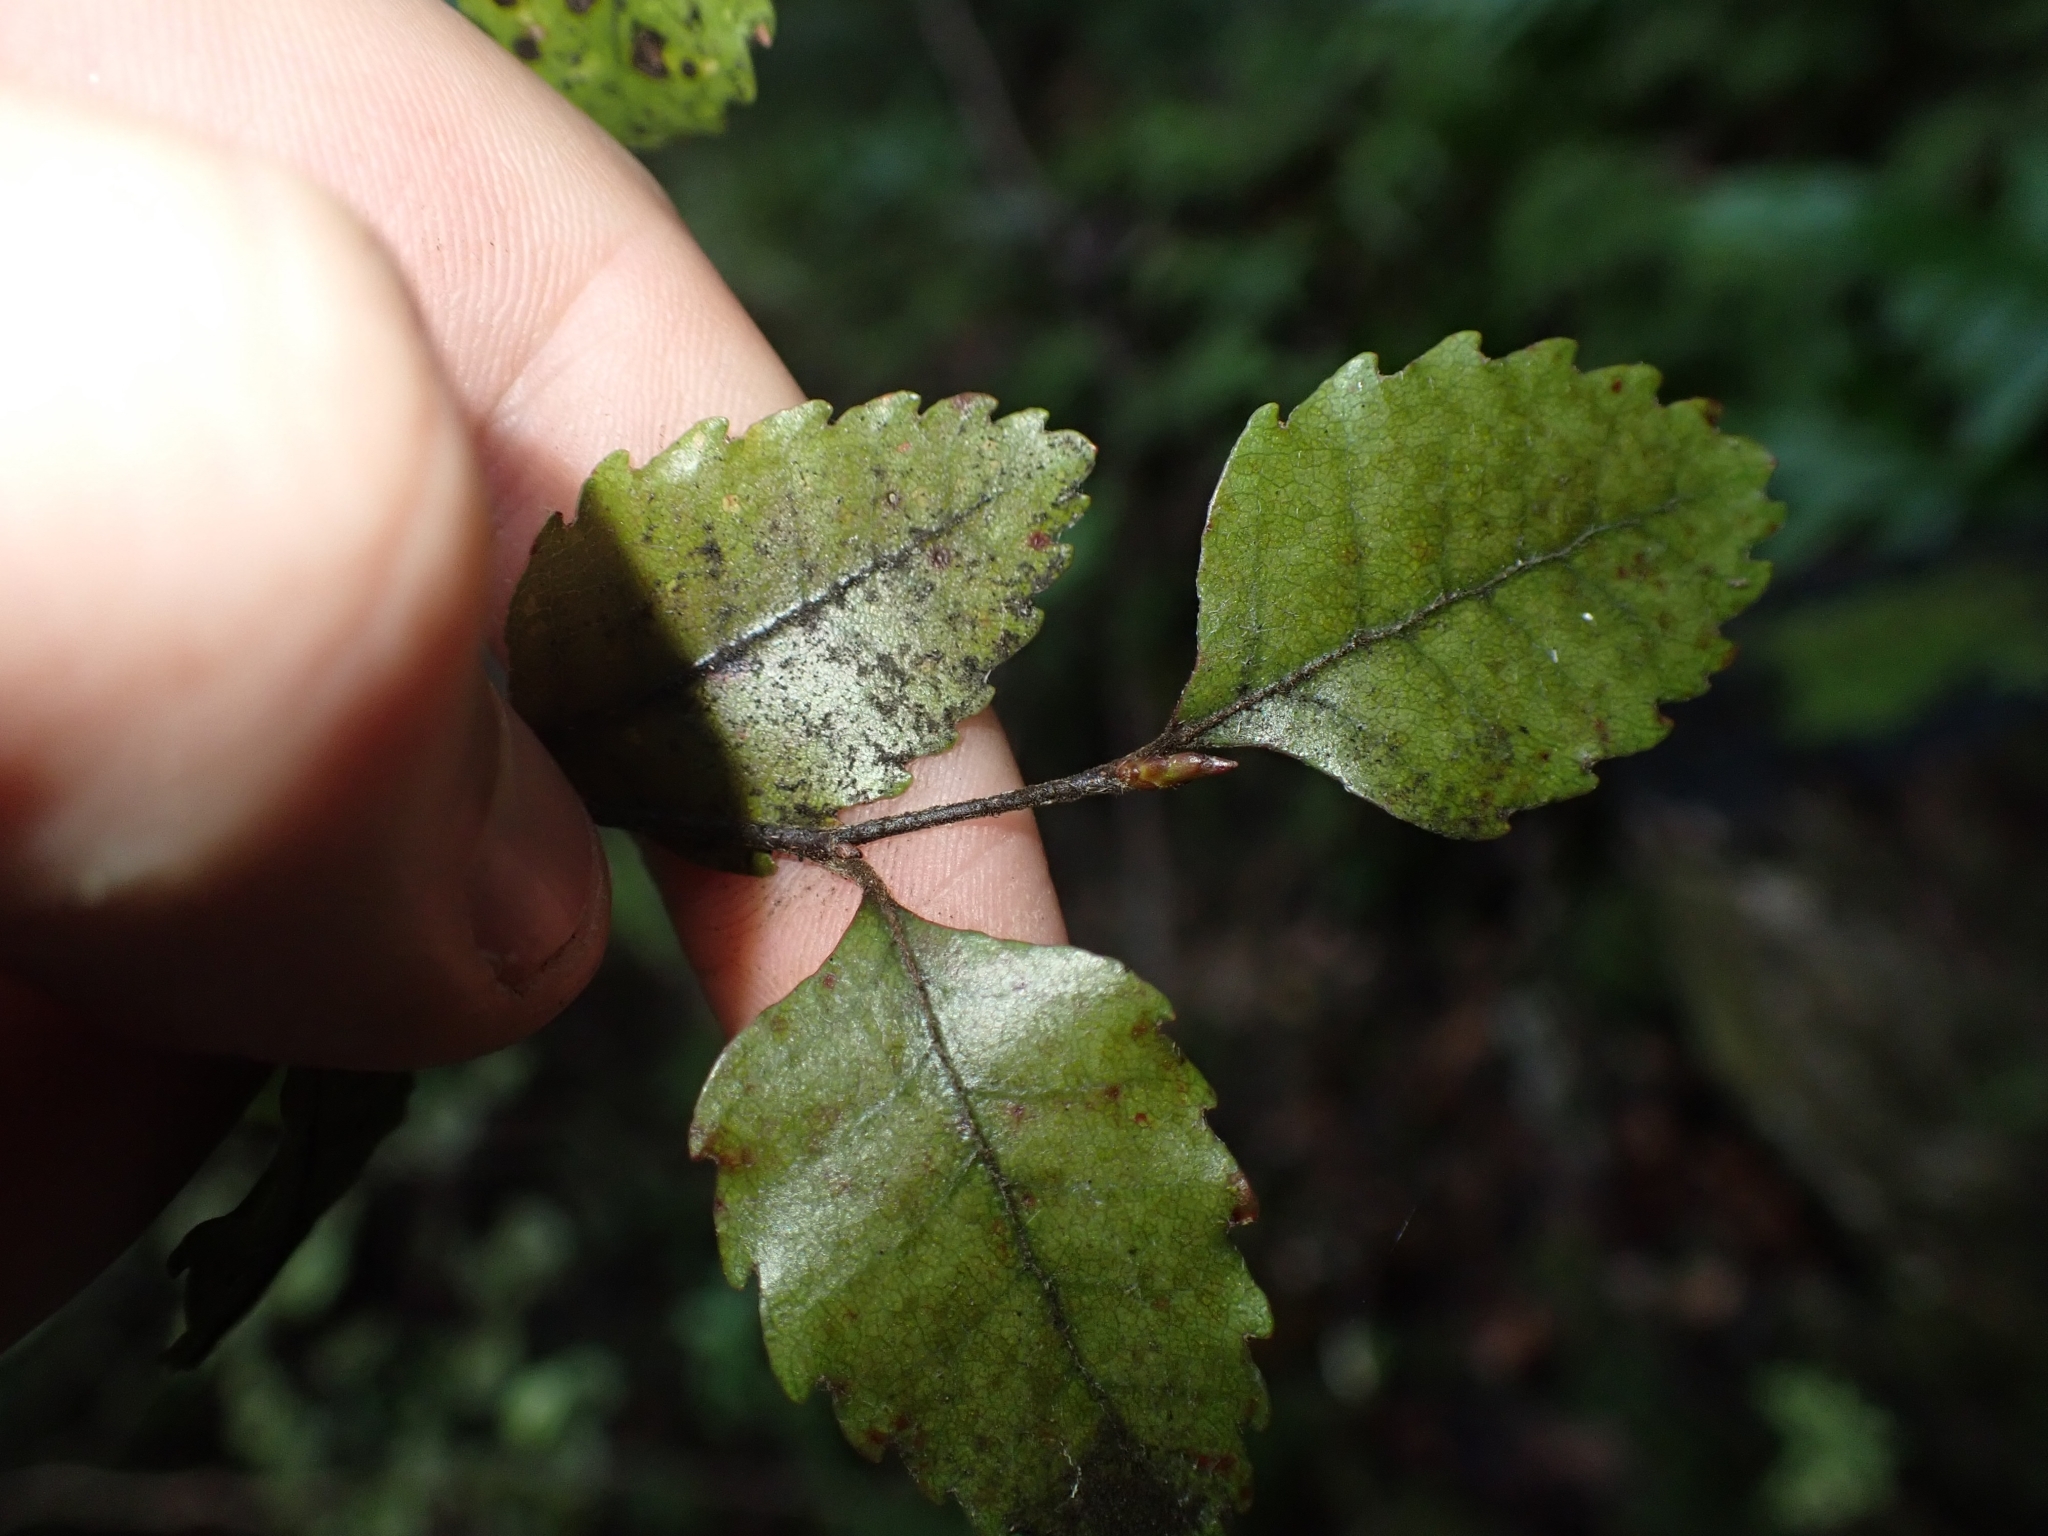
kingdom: Plantae
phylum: Tracheophyta
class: Magnoliopsida
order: Fagales
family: Nothofagaceae
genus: Nothofagus
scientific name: Nothofagus truncata
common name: Hard beech
